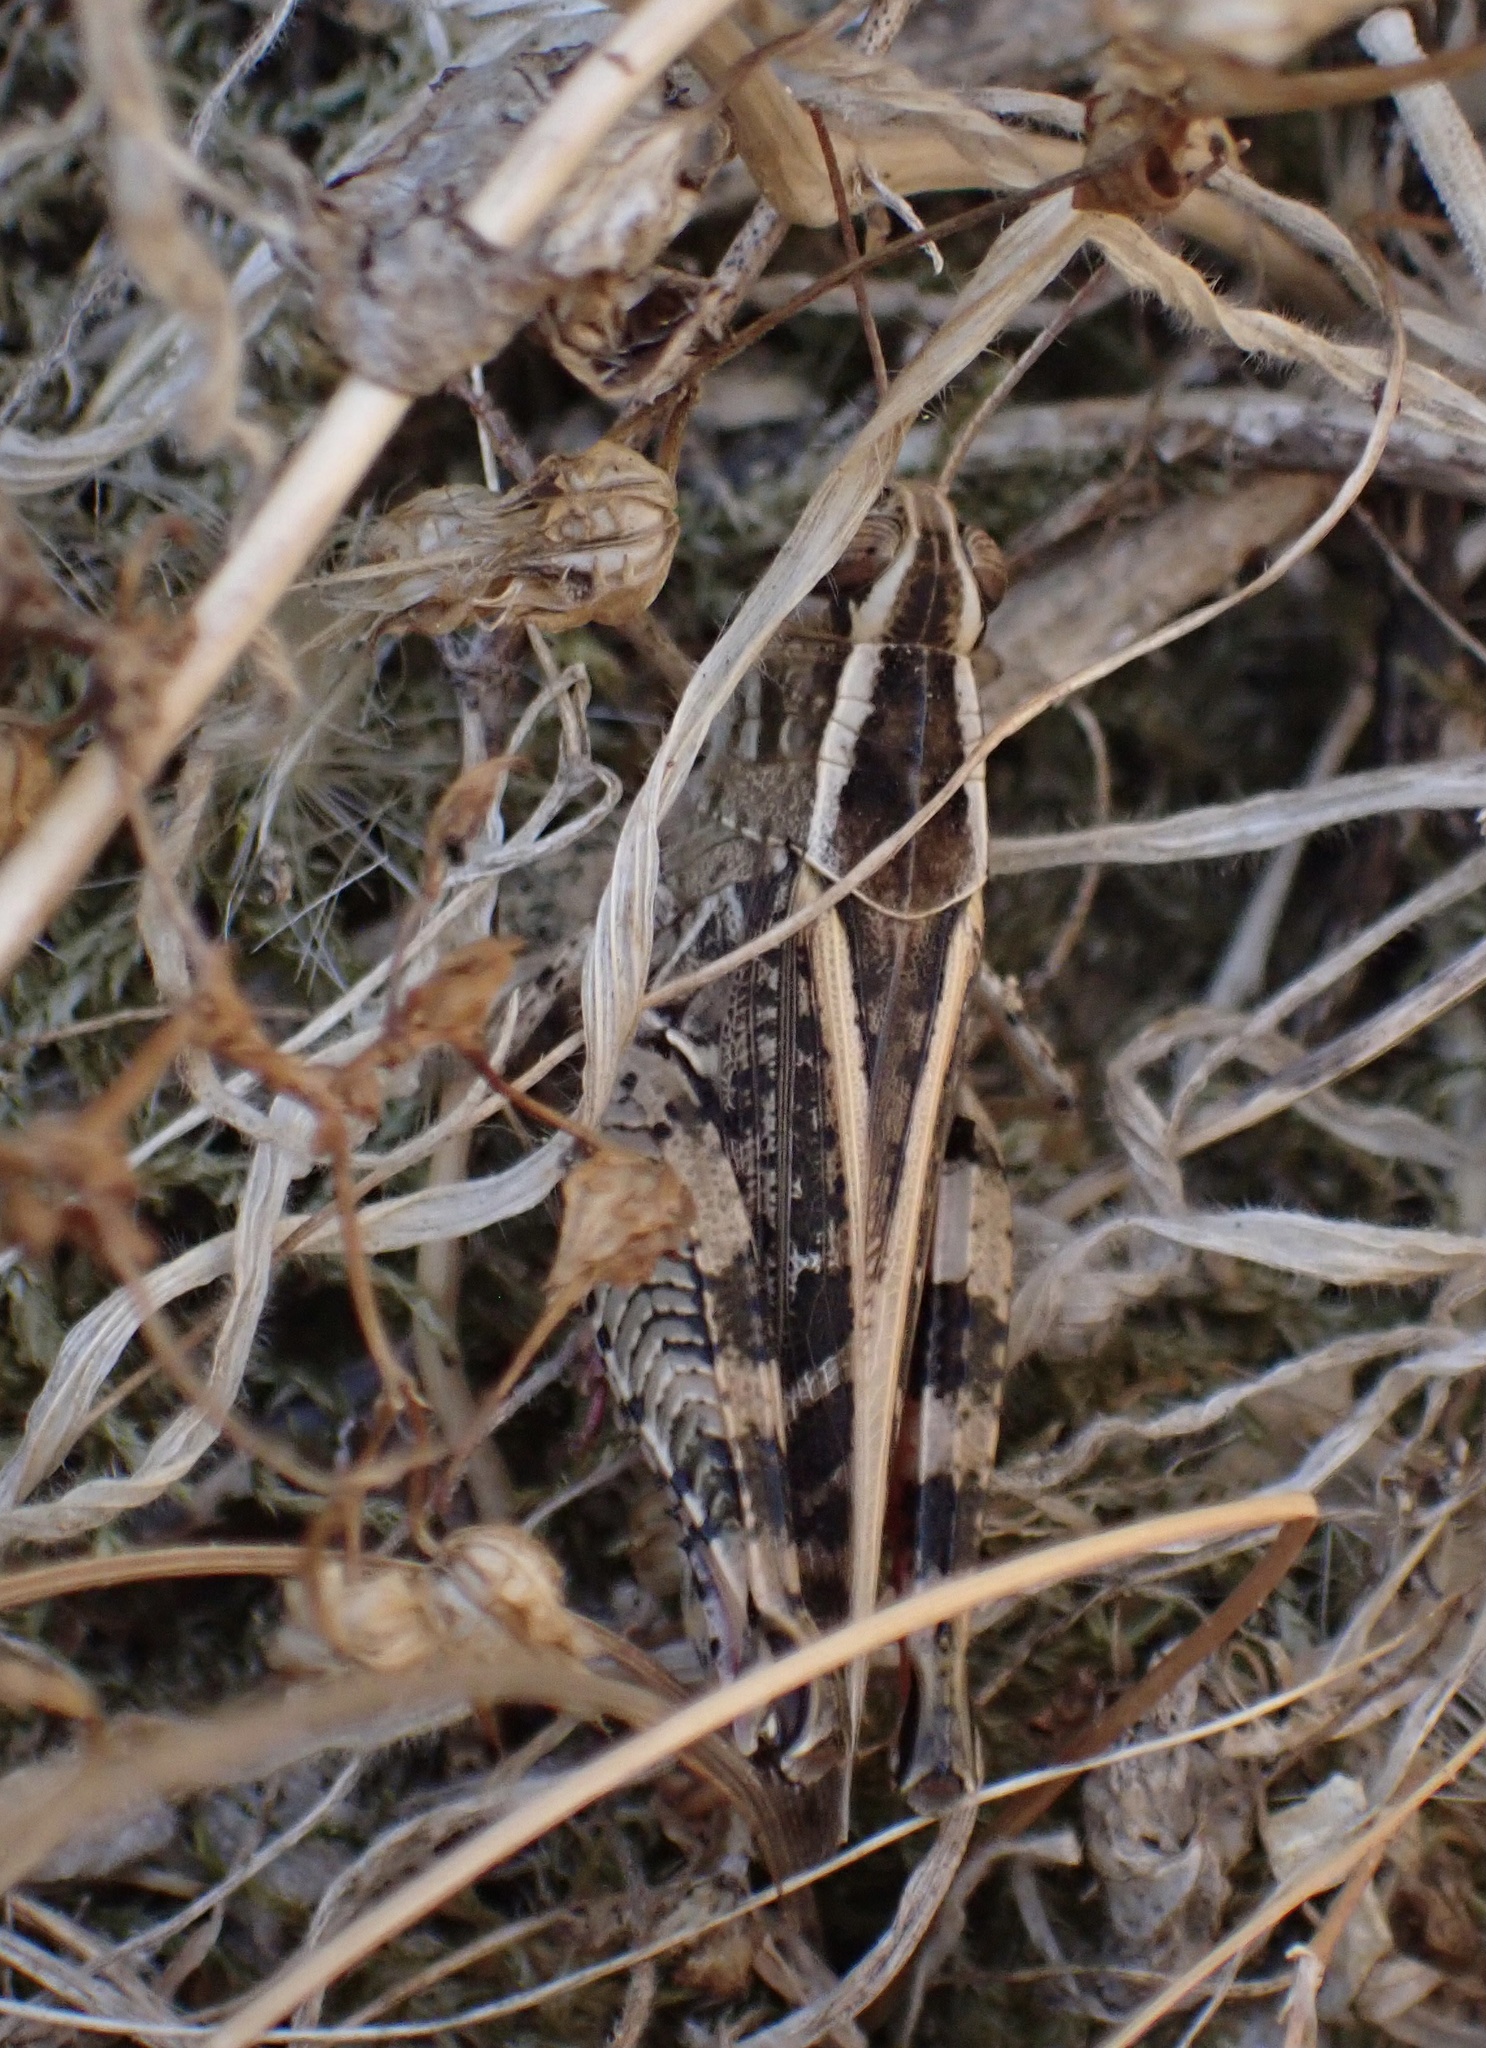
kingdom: Animalia
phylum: Arthropoda
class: Insecta
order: Orthoptera
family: Acrididae
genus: Calliptamus
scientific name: Calliptamus italicus
